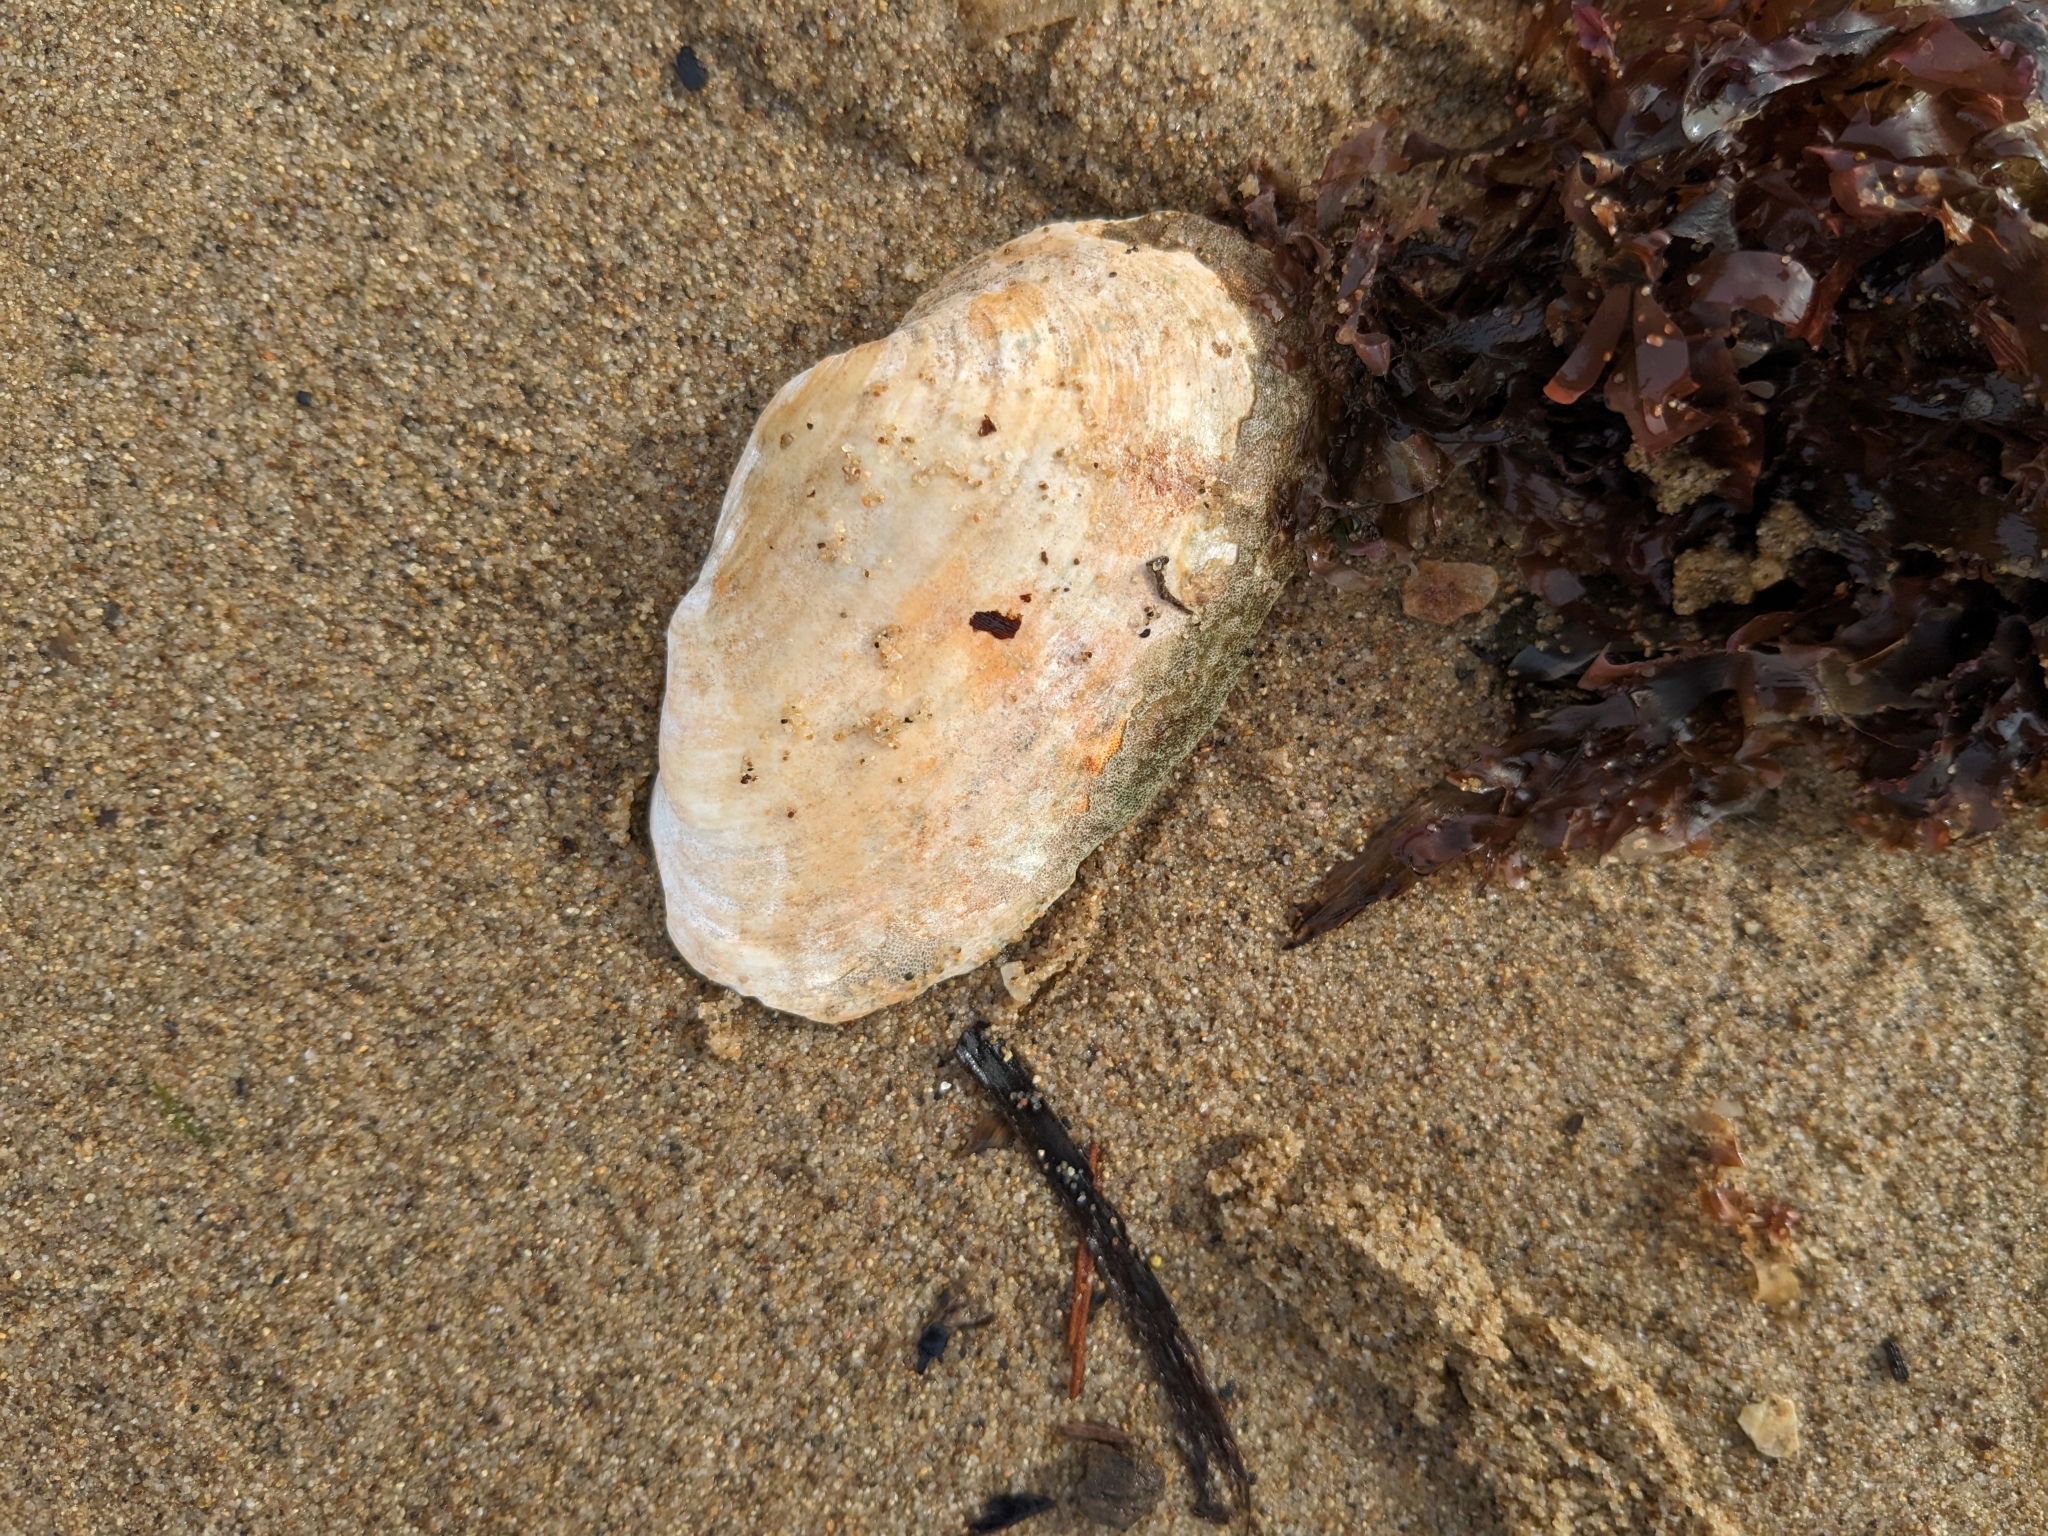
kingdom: Animalia
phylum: Mollusca
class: Bivalvia
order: Myida
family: Myidae
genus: Mya
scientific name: Mya arenaria
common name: Soft-shelled clam
